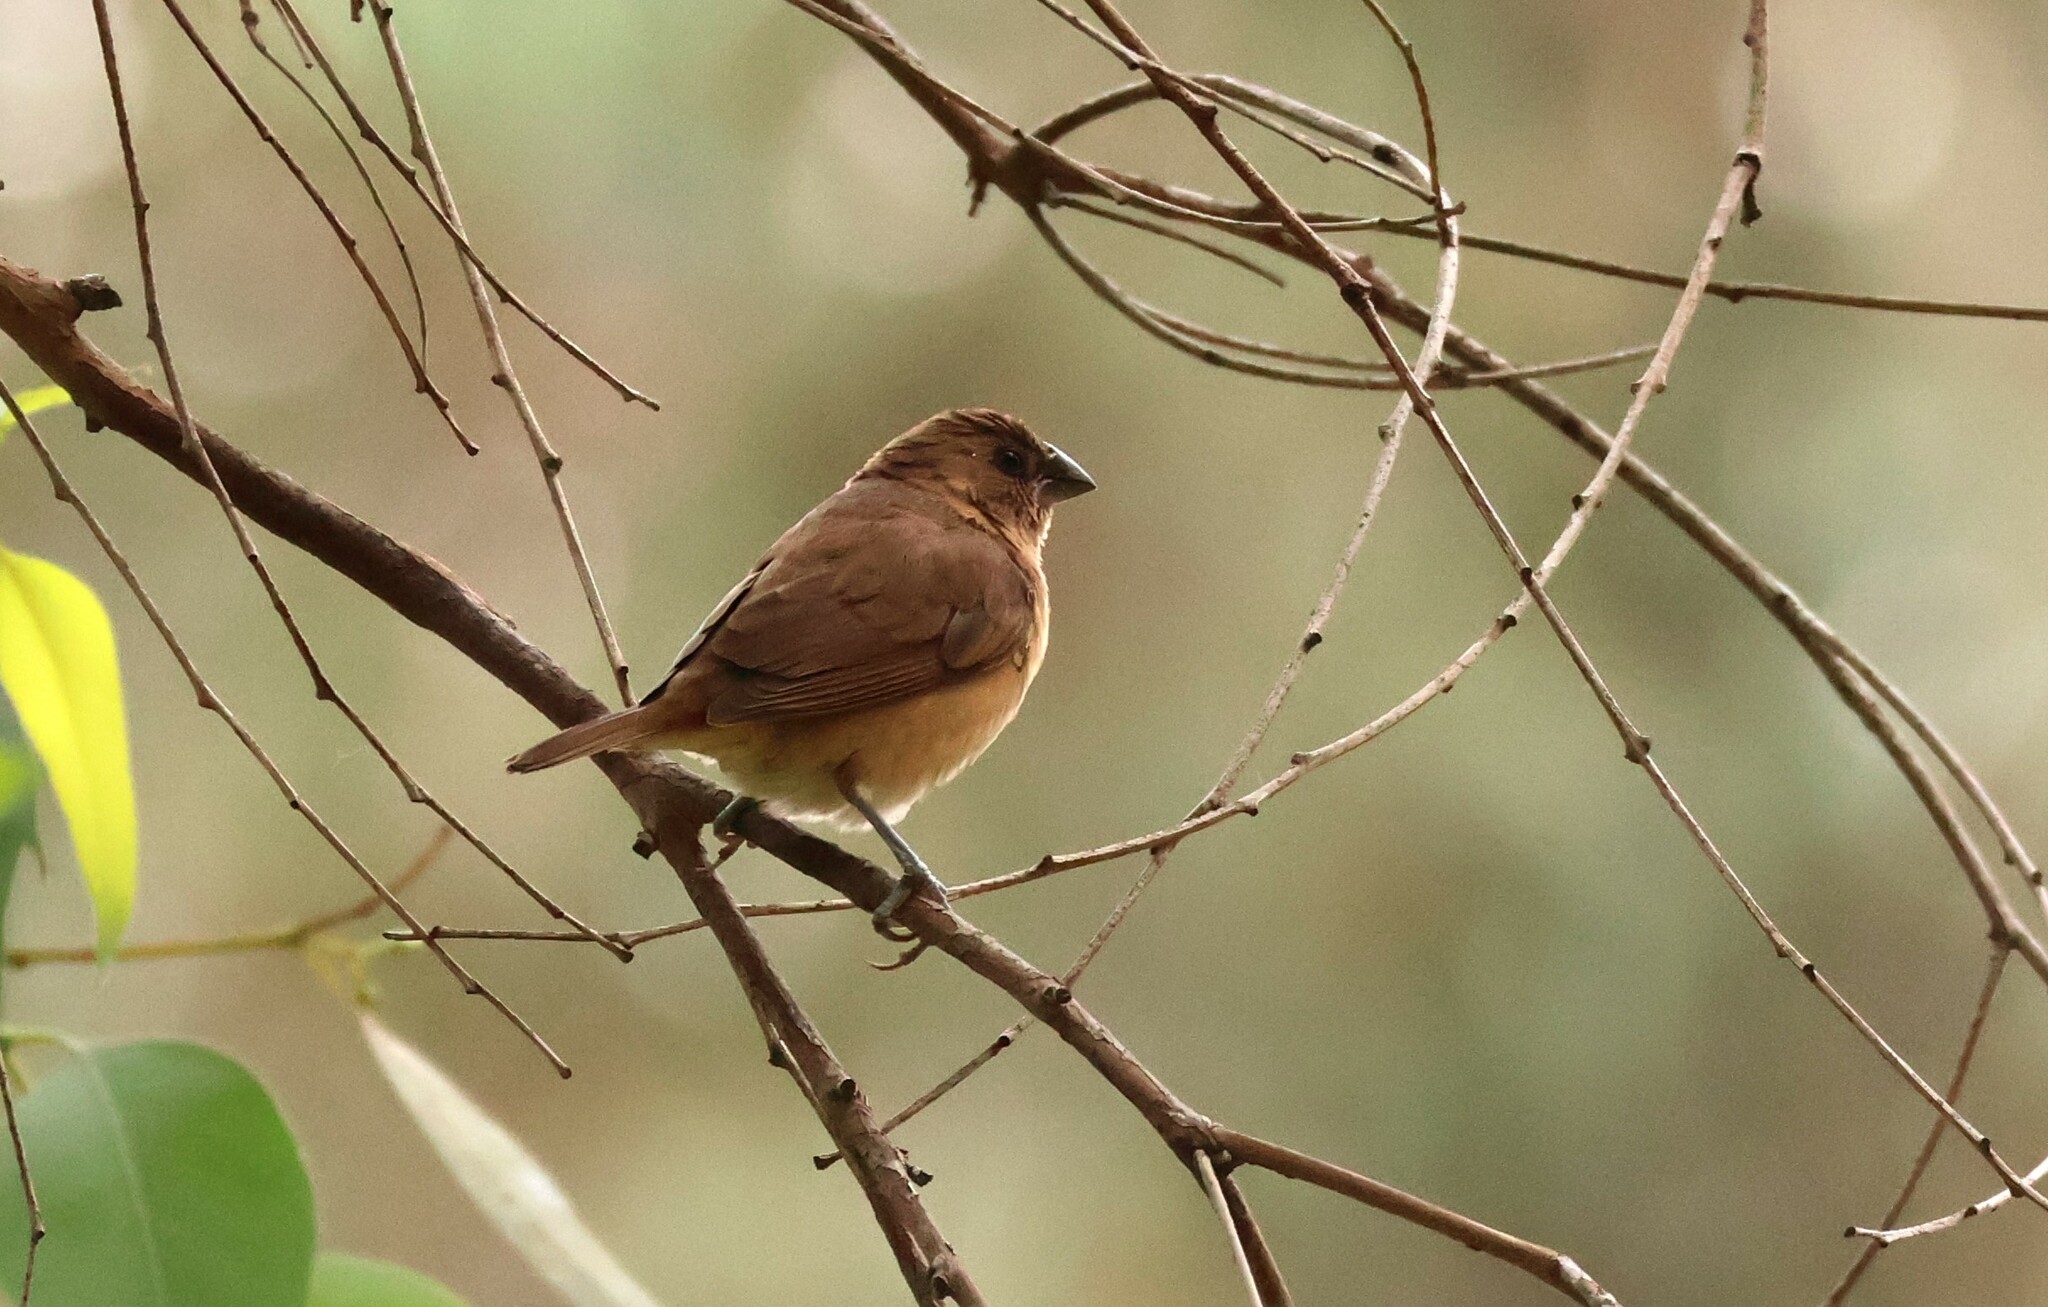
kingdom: Animalia
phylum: Chordata
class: Aves
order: Passeriformes
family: Estrildidae
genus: Lonchura
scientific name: Lonchura punctulata
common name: Scaly-breasted munia
